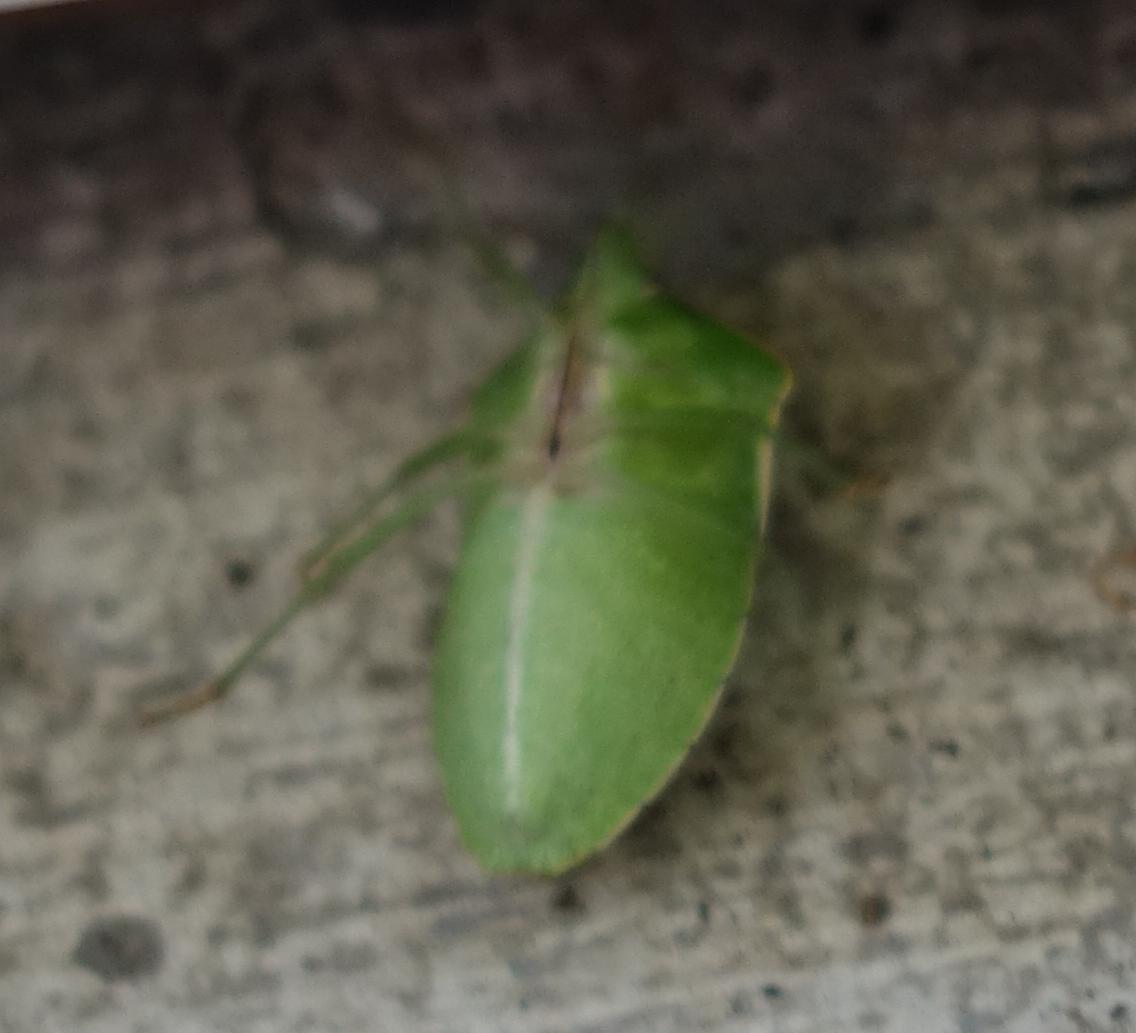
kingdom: Animalia
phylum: Arthropoda
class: Insecta
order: Hemiptera
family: Pentatomidae
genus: Nezara
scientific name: Nezara viridula
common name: Southern green stink bug
